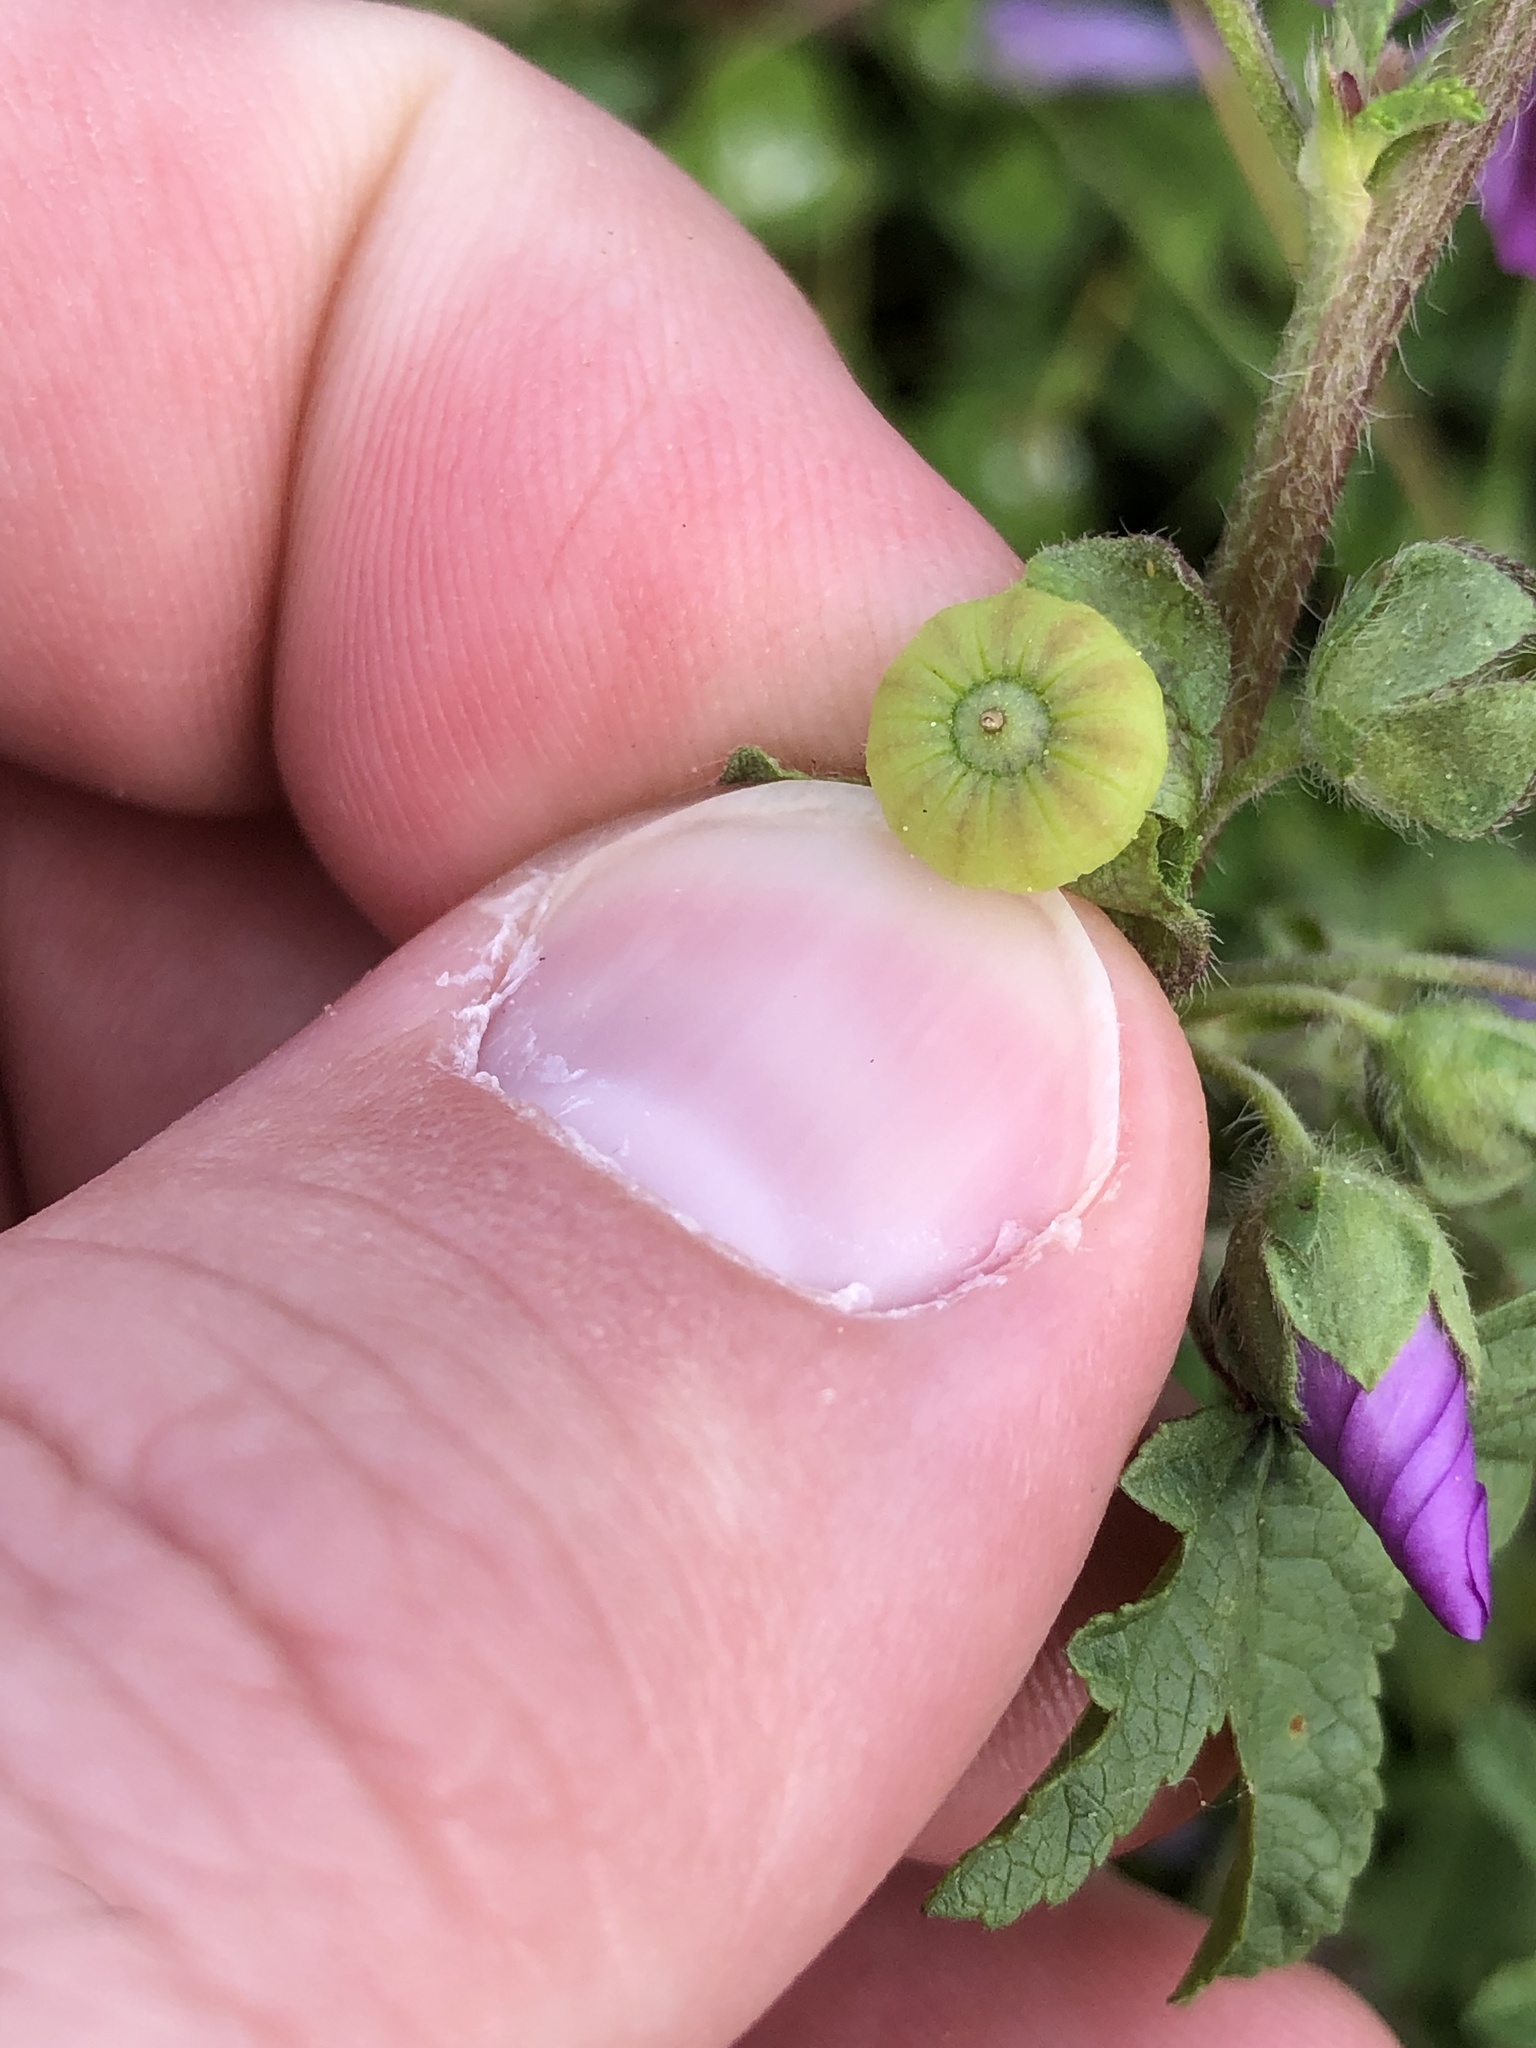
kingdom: Plantae
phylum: Tracheophyta
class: Magnoliopsida
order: Malvales
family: Malvaceae
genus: Malva
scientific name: Malva sylvestris
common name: Common mallow
